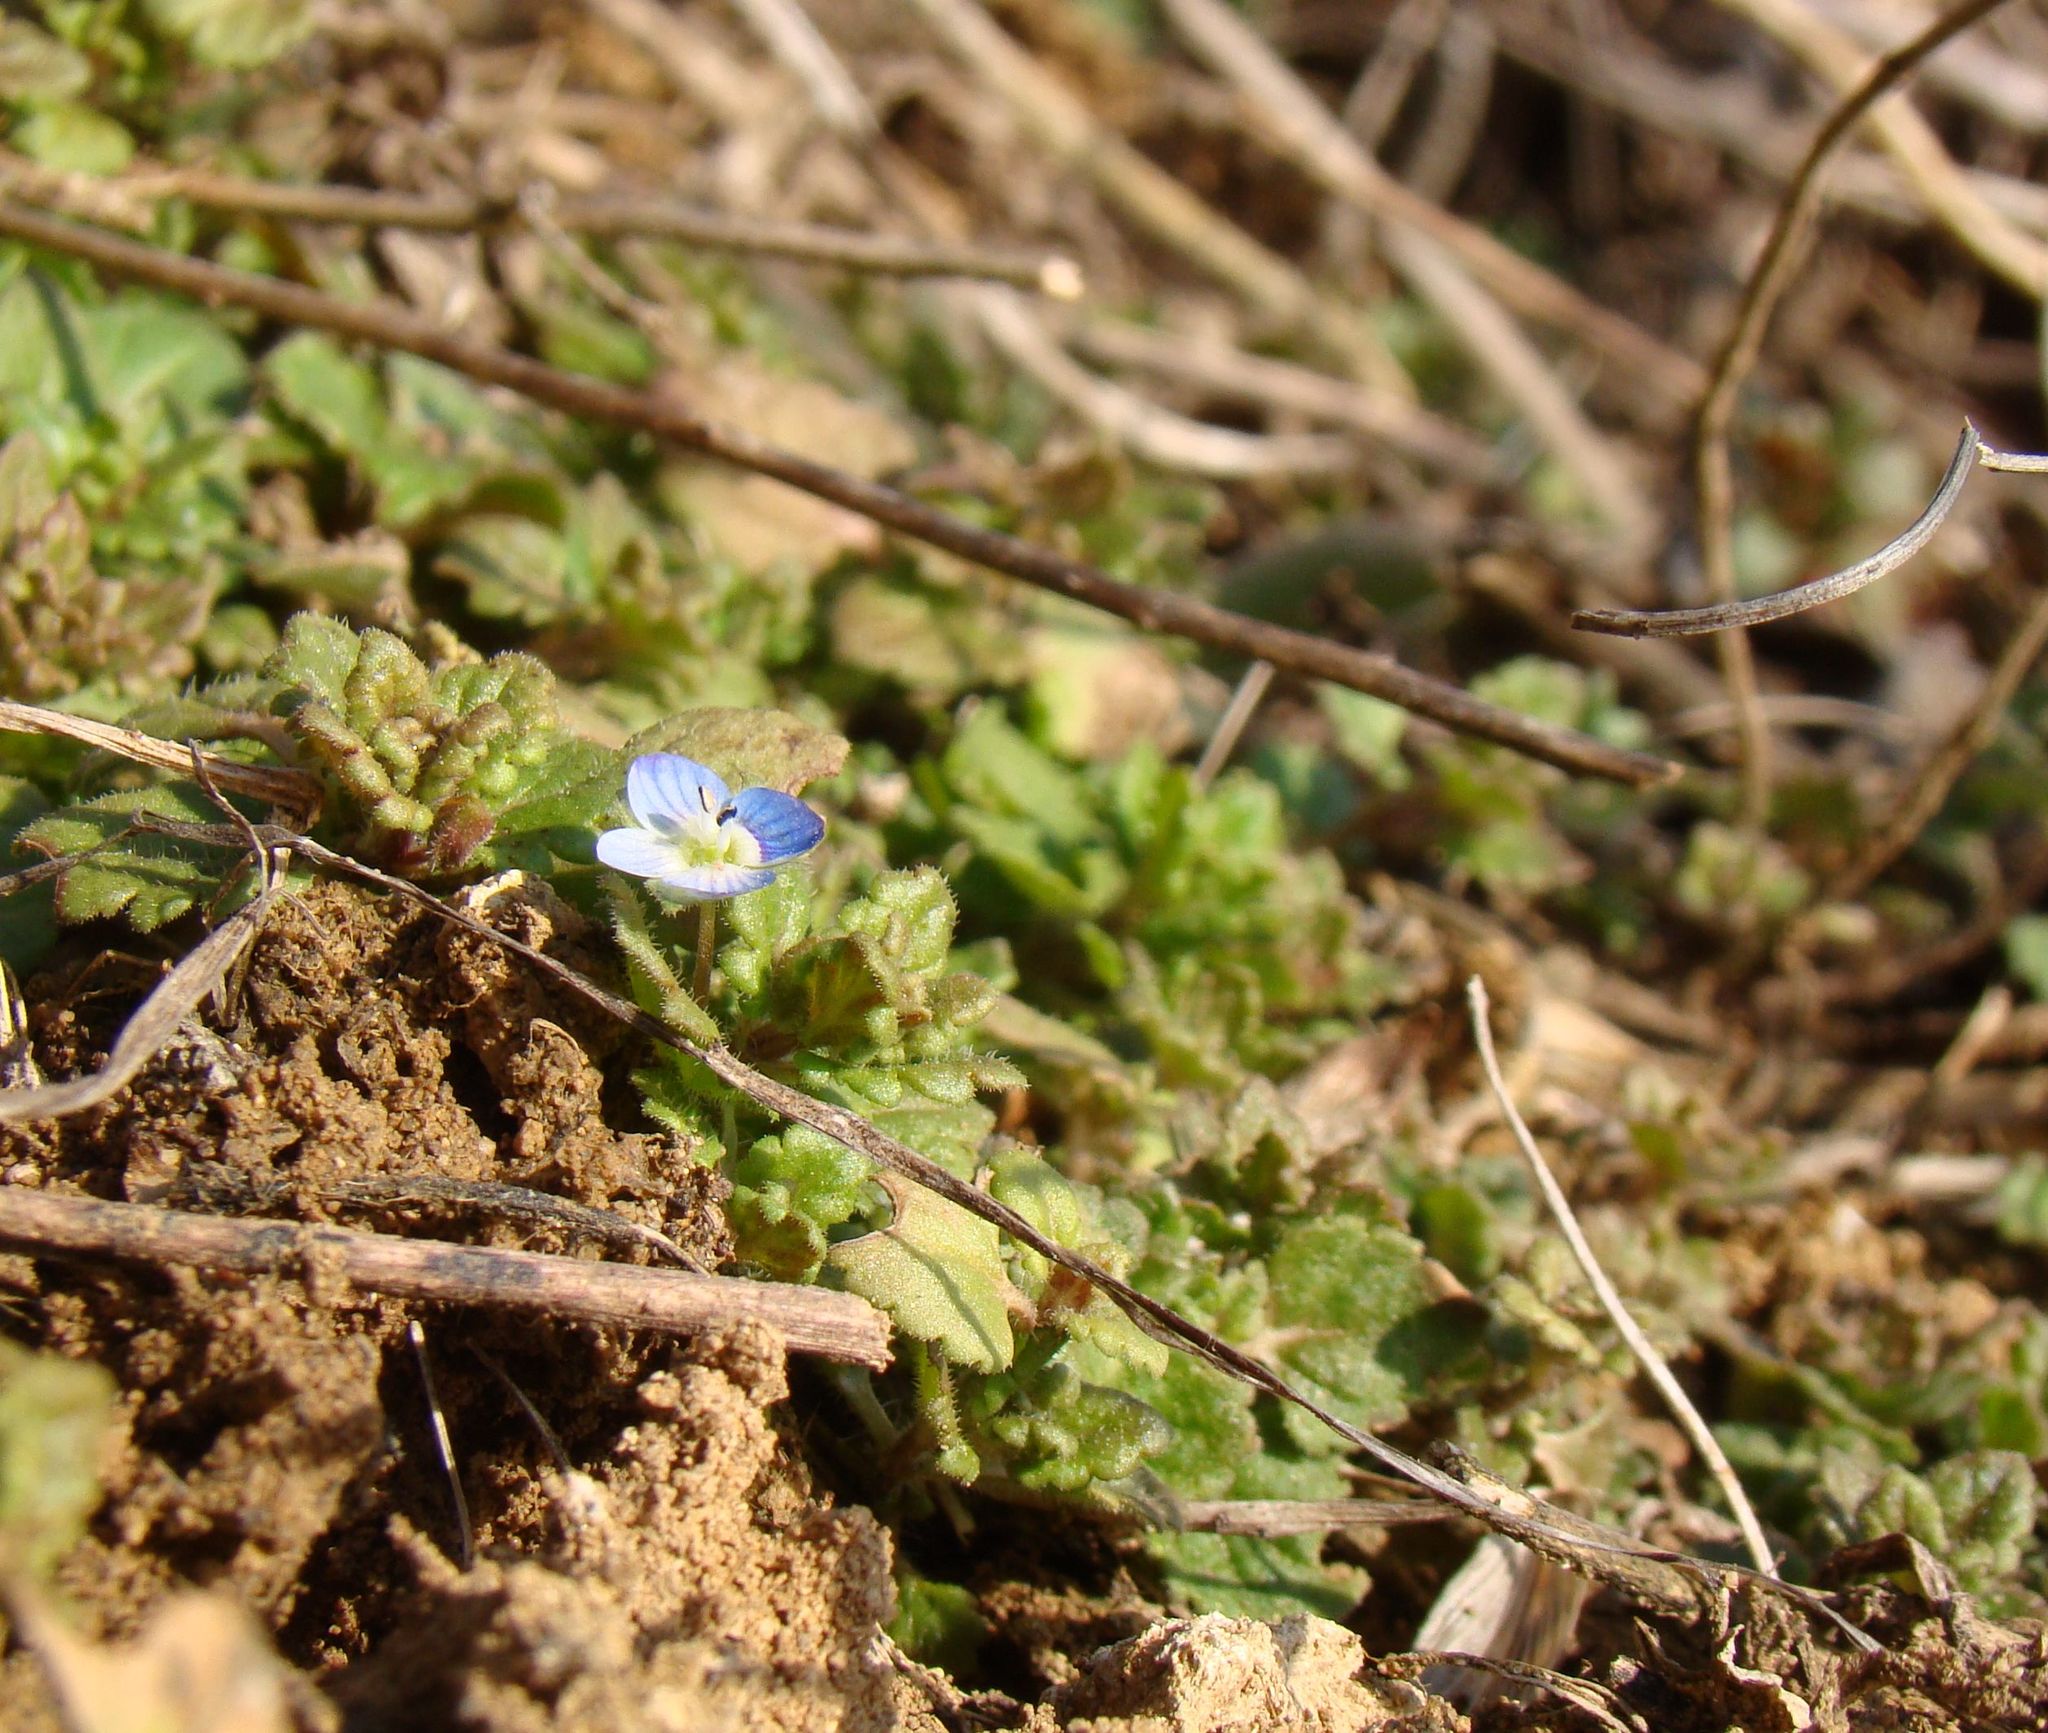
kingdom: Plantae
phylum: Tracheophyta
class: Magnoliopsida
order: Lamiales
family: Plantaginaceae
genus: Veronica
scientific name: Veronica polita
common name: Grey field-speedwell
